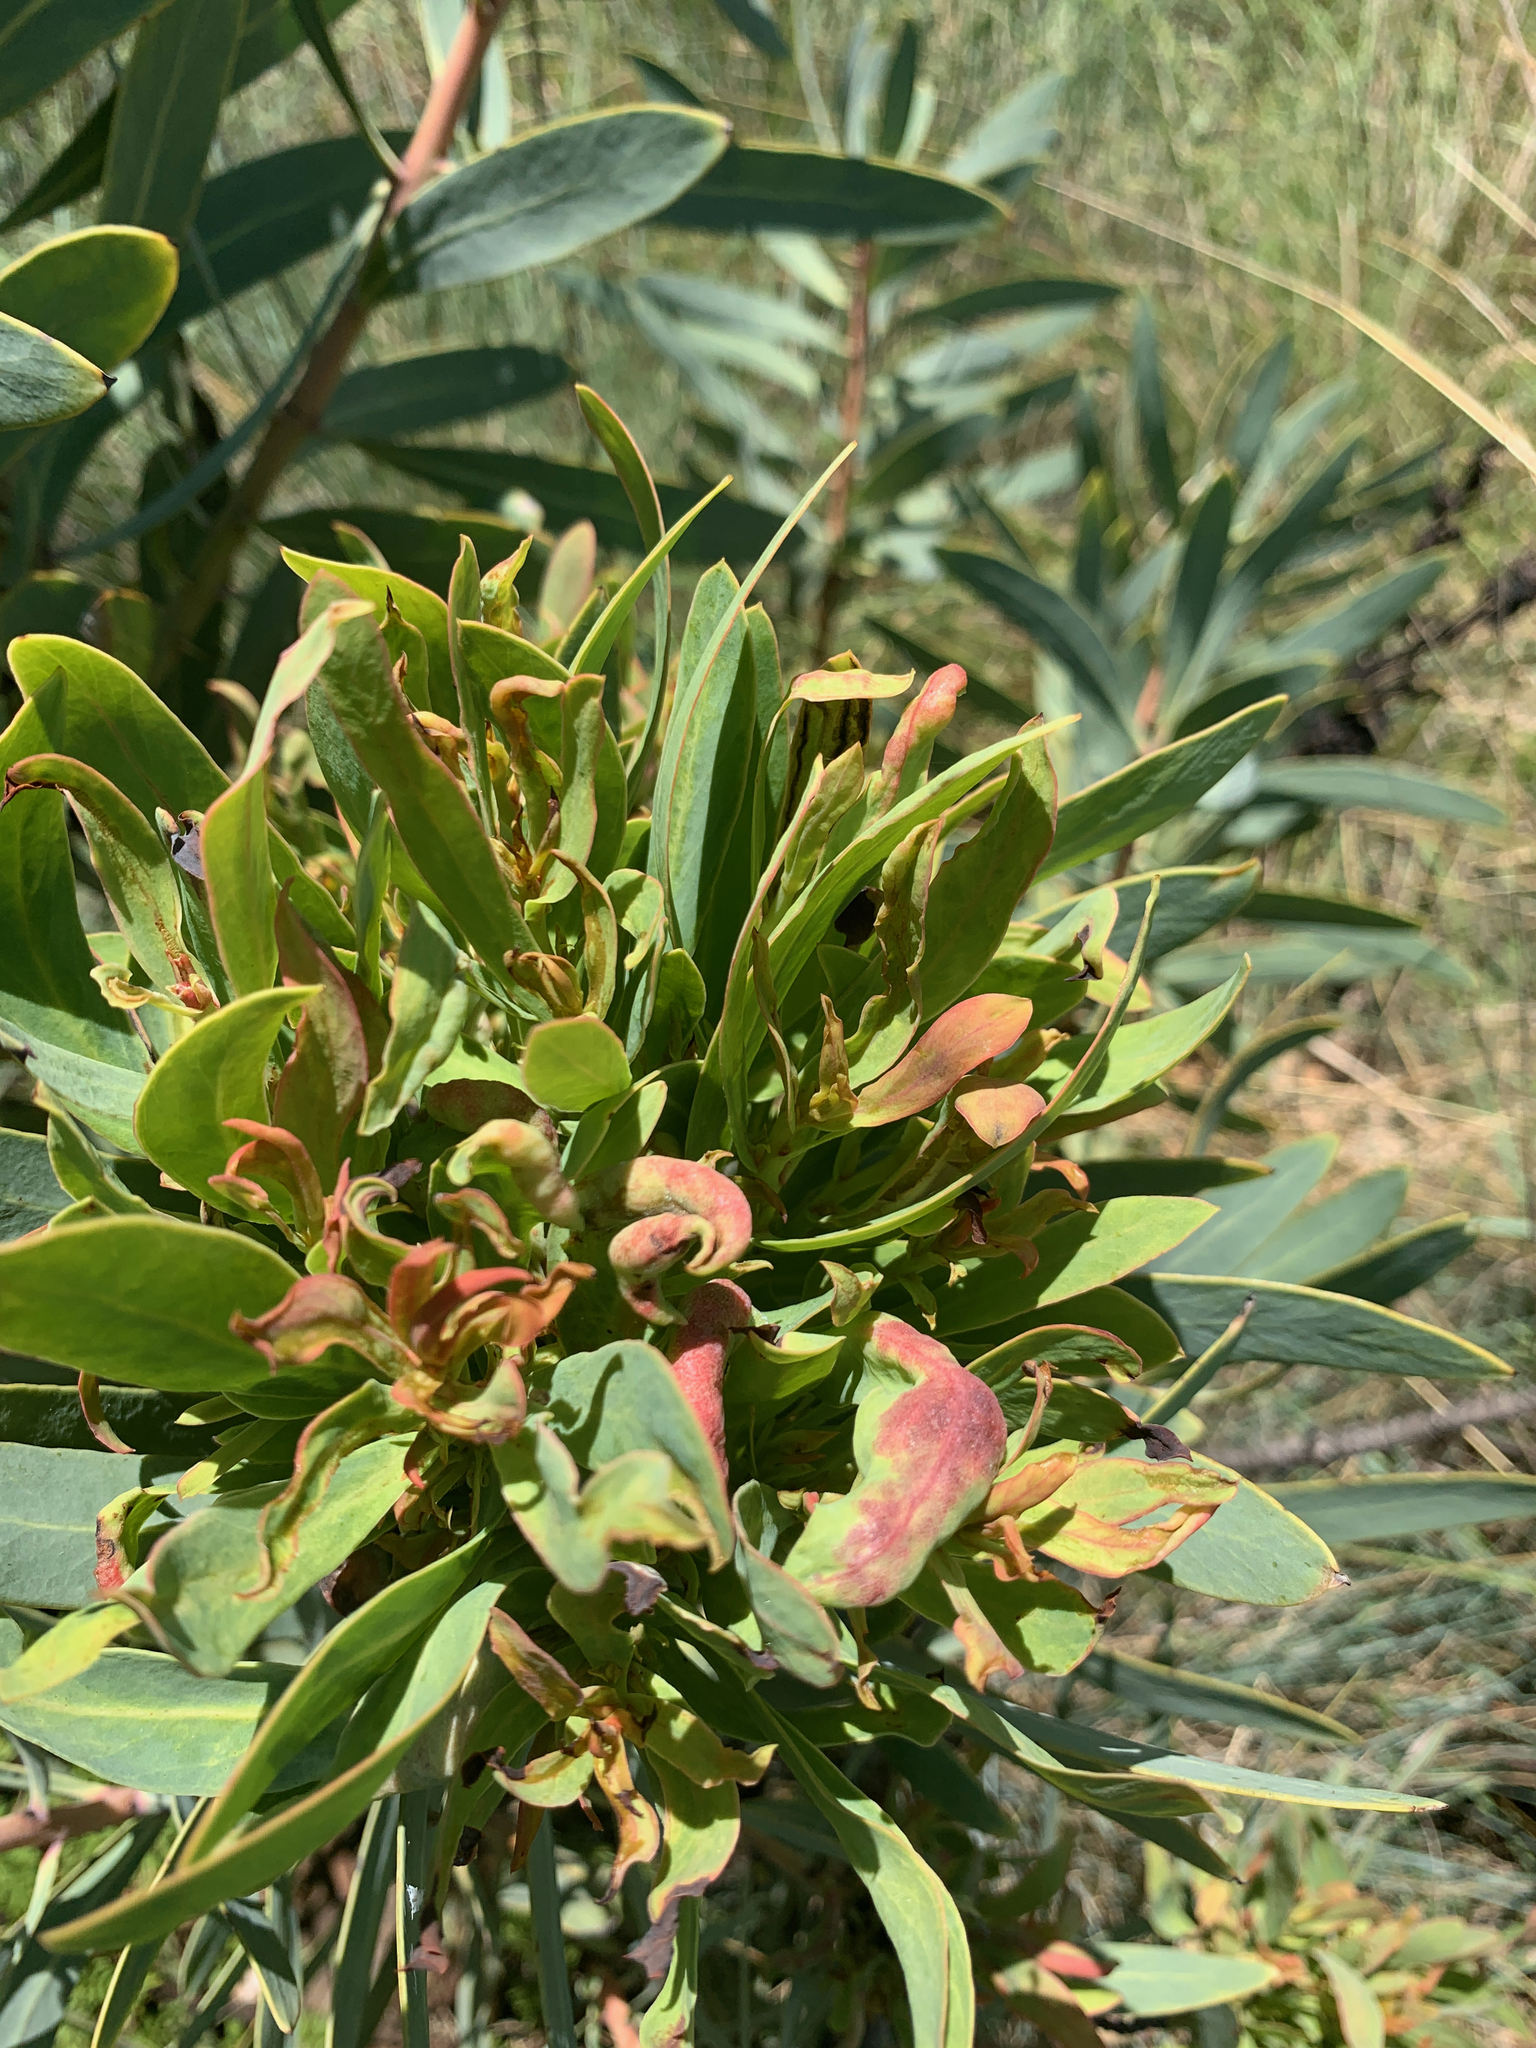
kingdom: Bacteria
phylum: Firmicutes
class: Bacilli
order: Acholeplasmatales
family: Acholeplasmataceae
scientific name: Acholeplasmataceae
